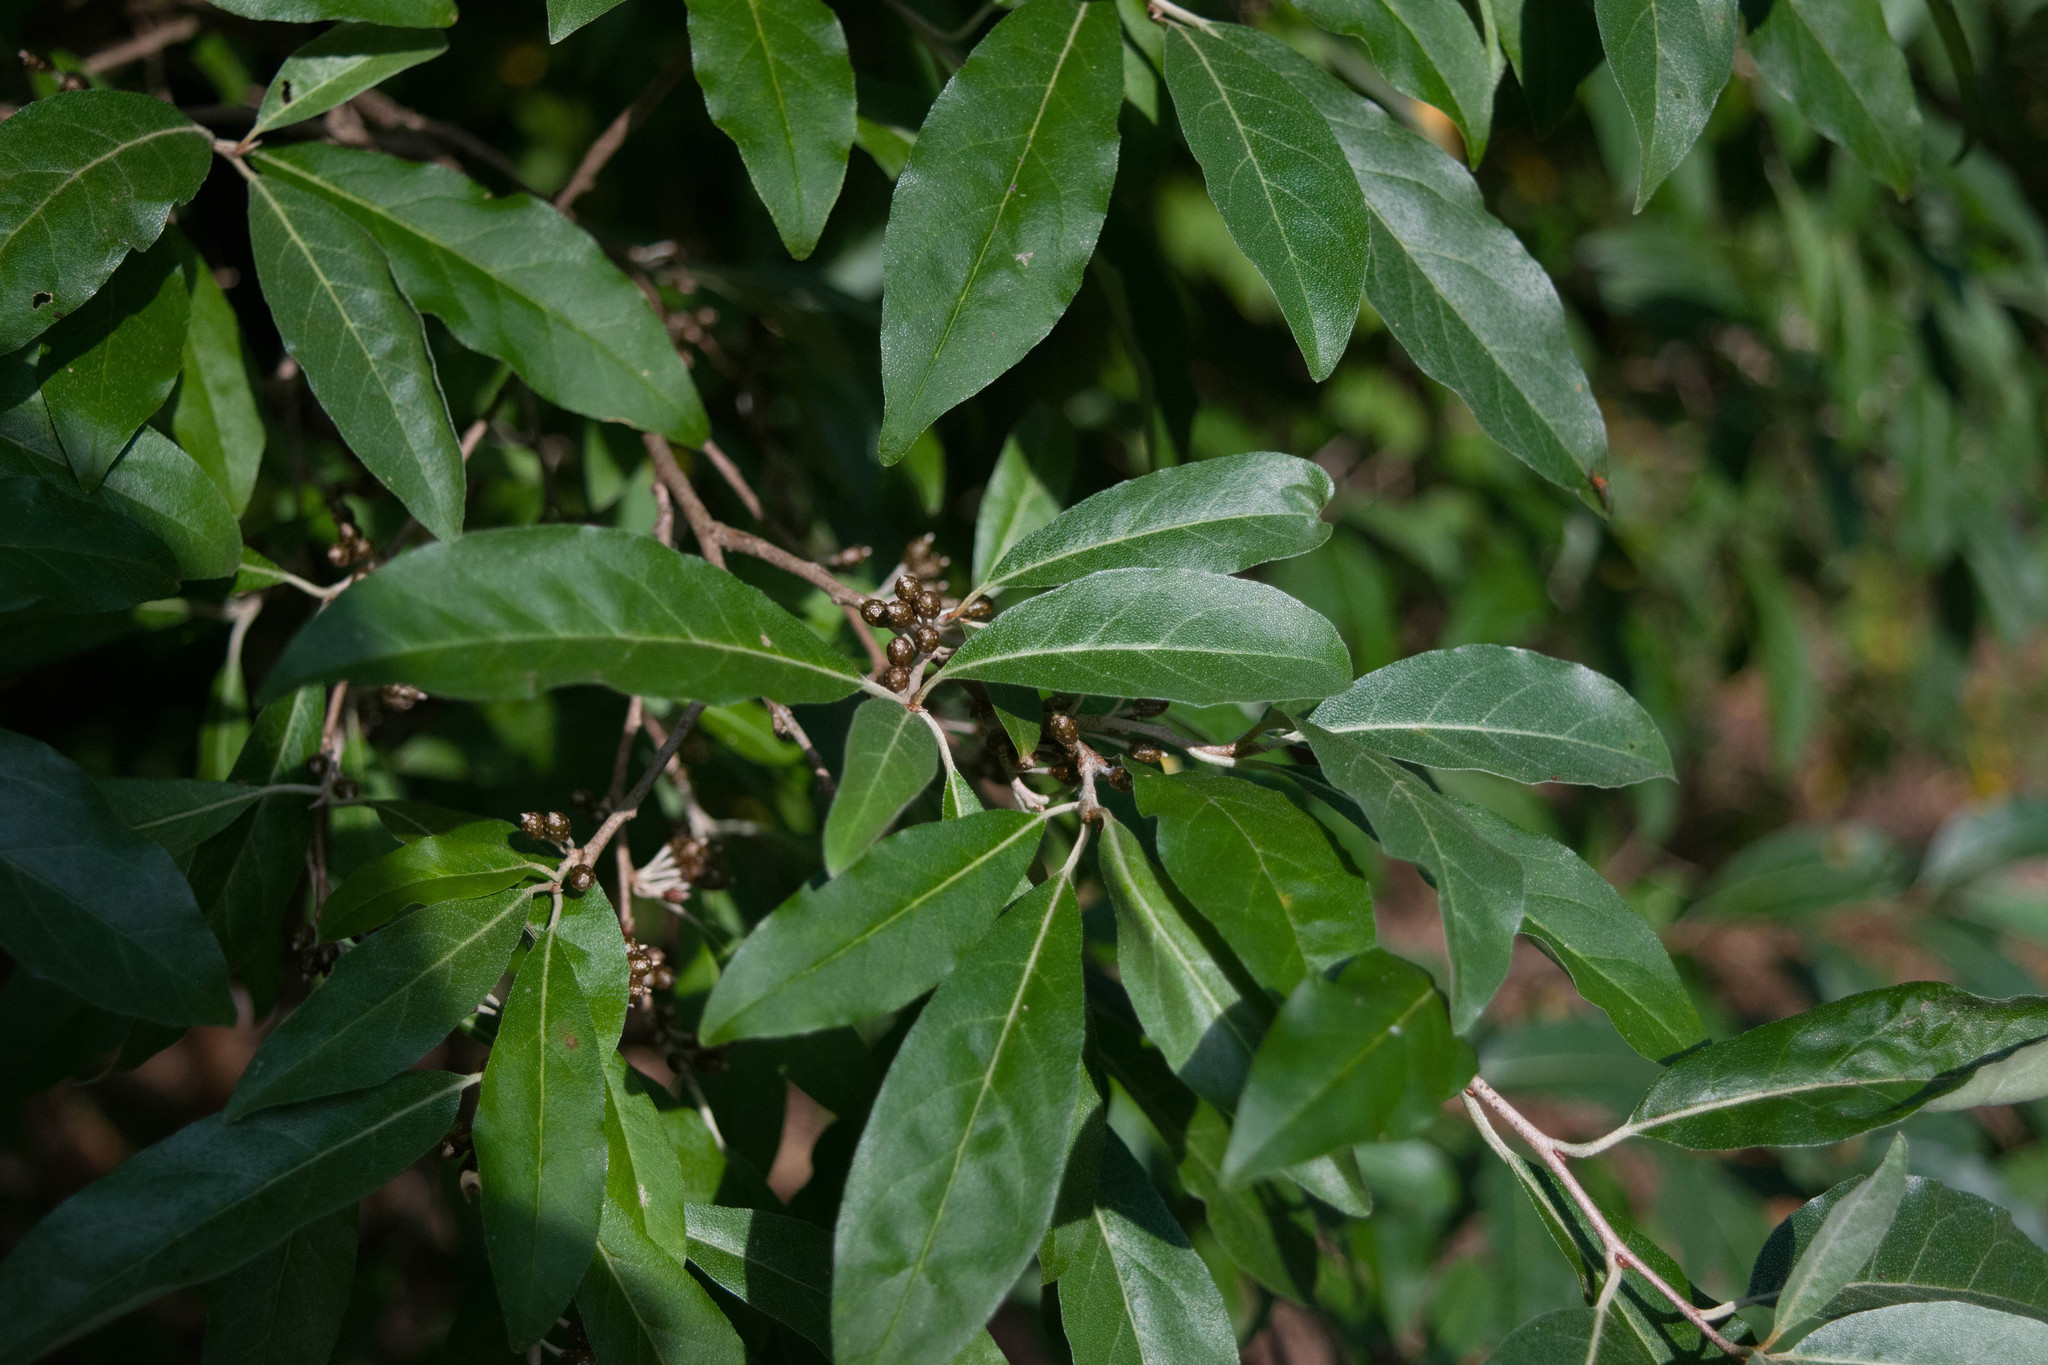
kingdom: Plantae
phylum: Tracheophyta
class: Magnoliopsida
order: Rosales
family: Elaeagnaceae
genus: Elaeagnus
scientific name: Elaeagnus umbellata
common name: Autumn olive
